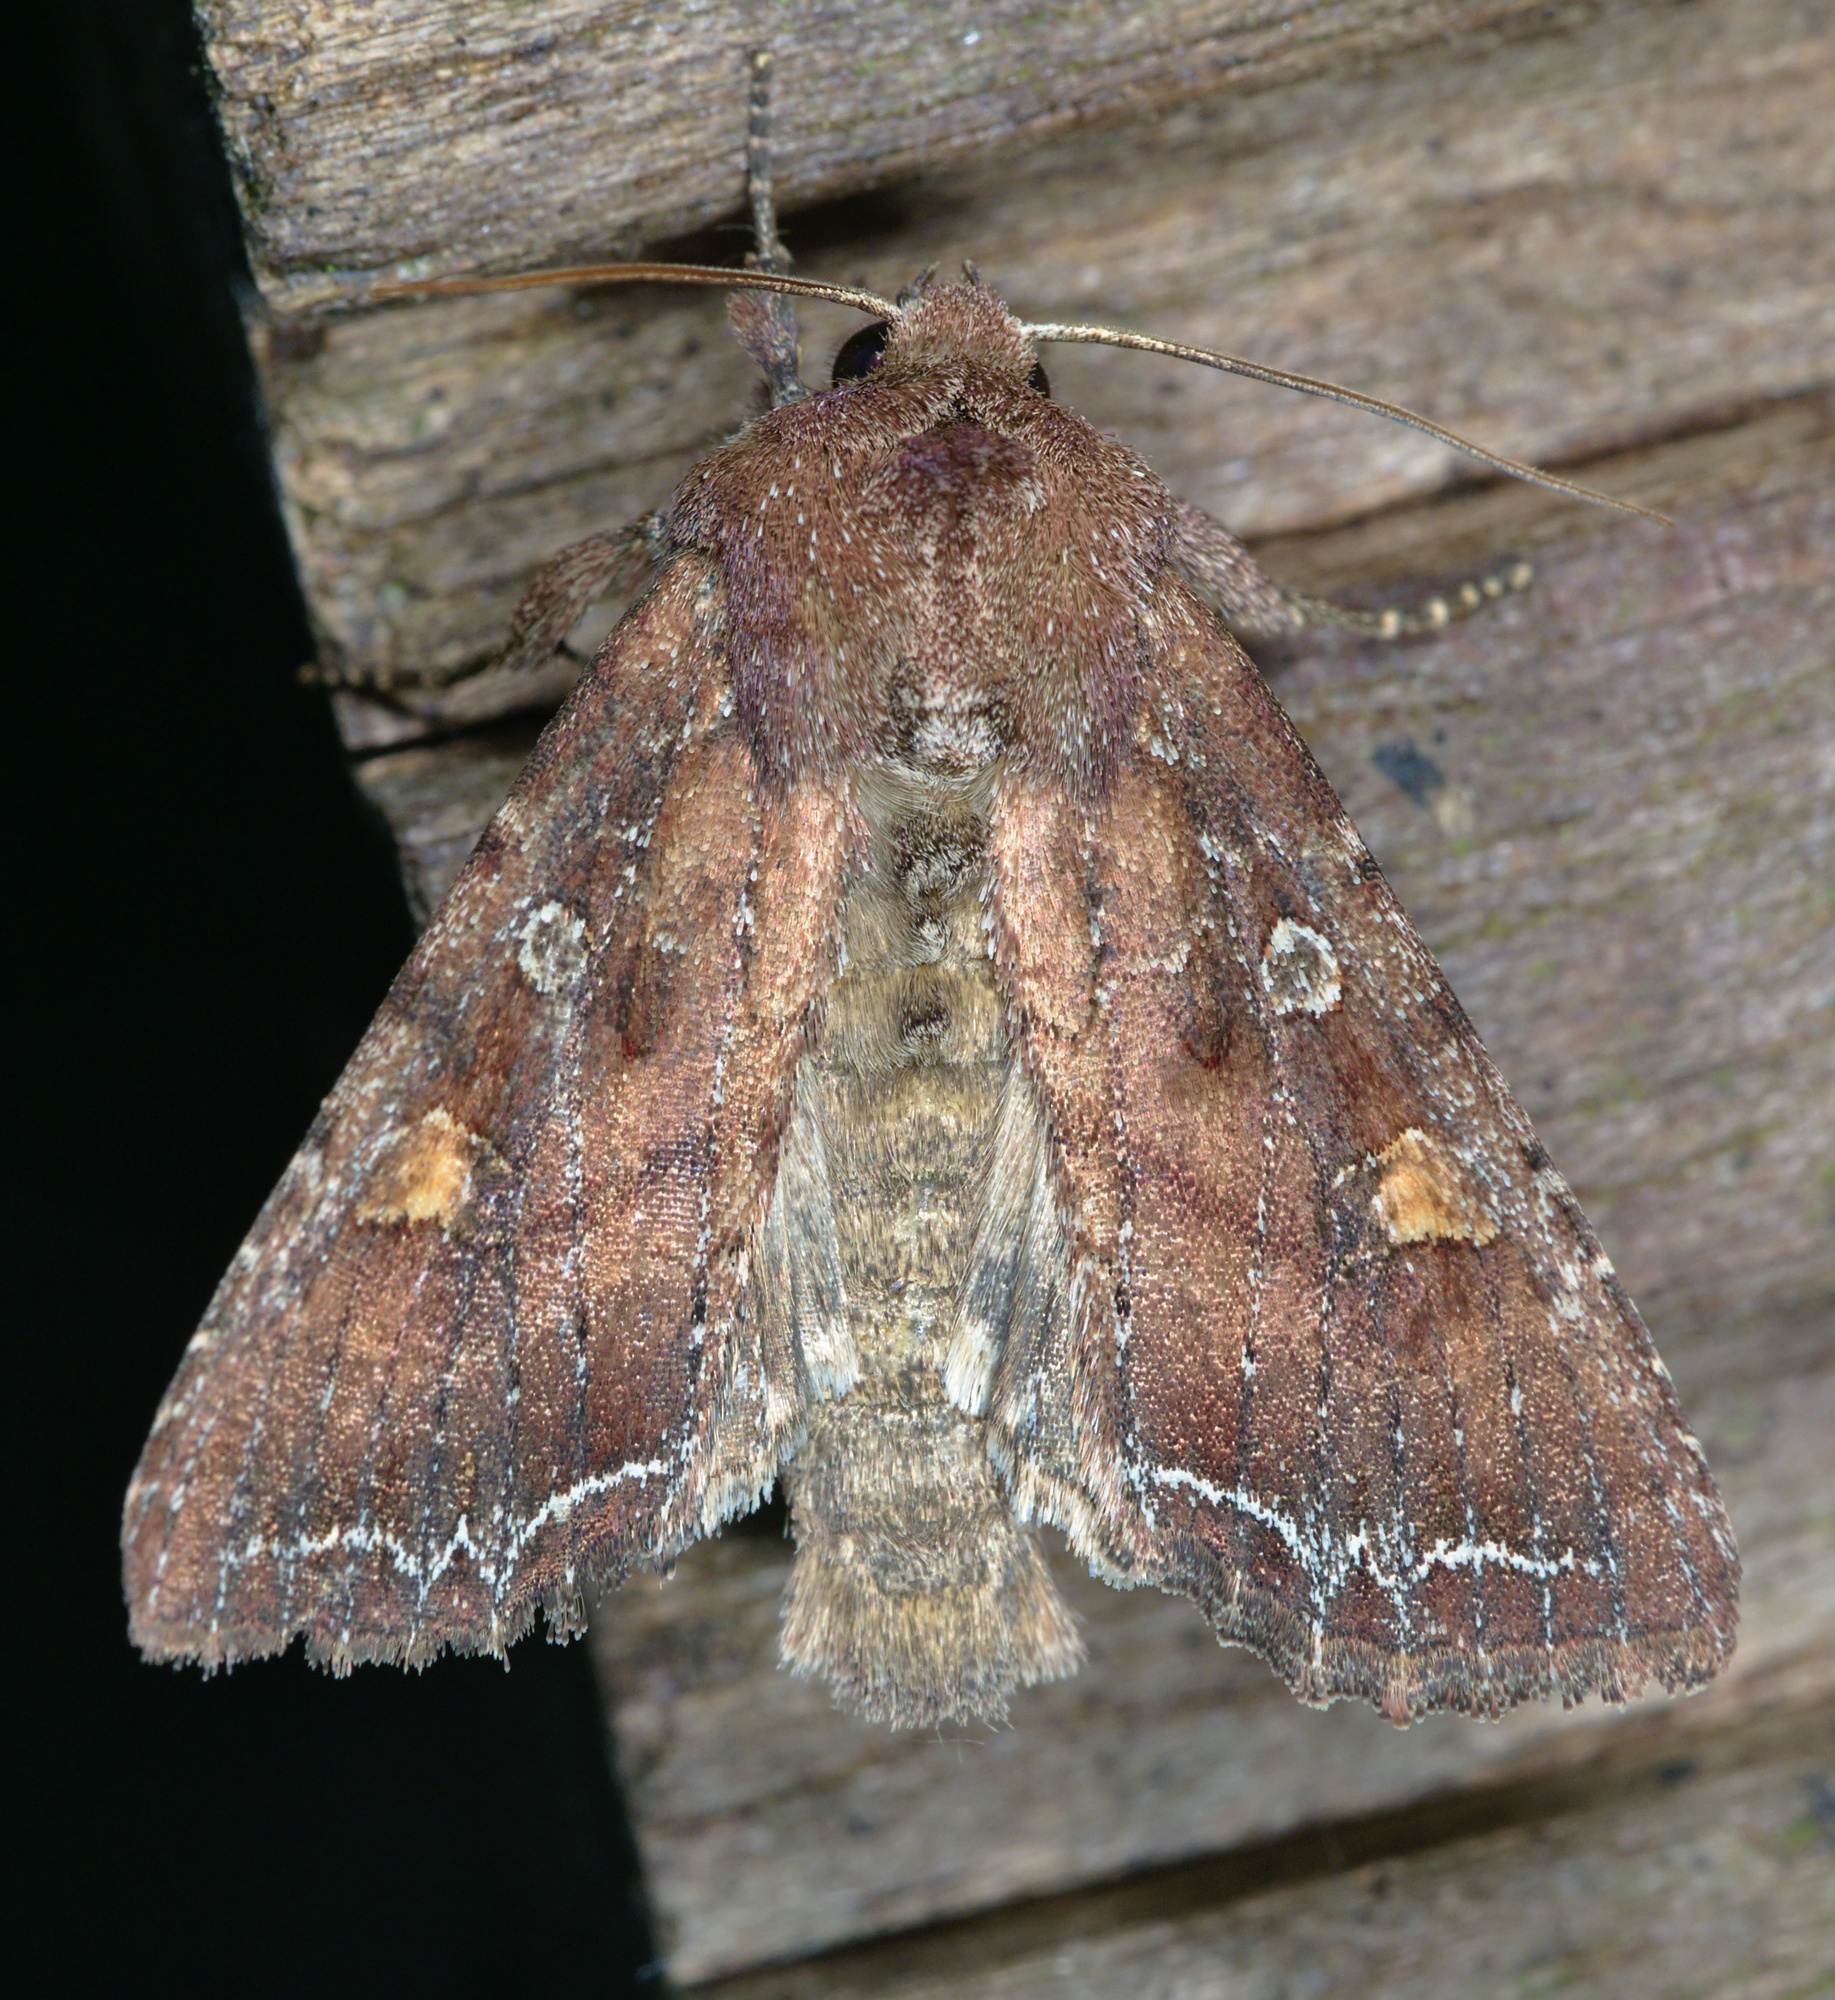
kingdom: Animalia
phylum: Arthropoda
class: Insecta
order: Lepidoptera
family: Noctuidae
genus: Lacanobia
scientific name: Lacanobia oleracea
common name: Bright-line brown-eye
